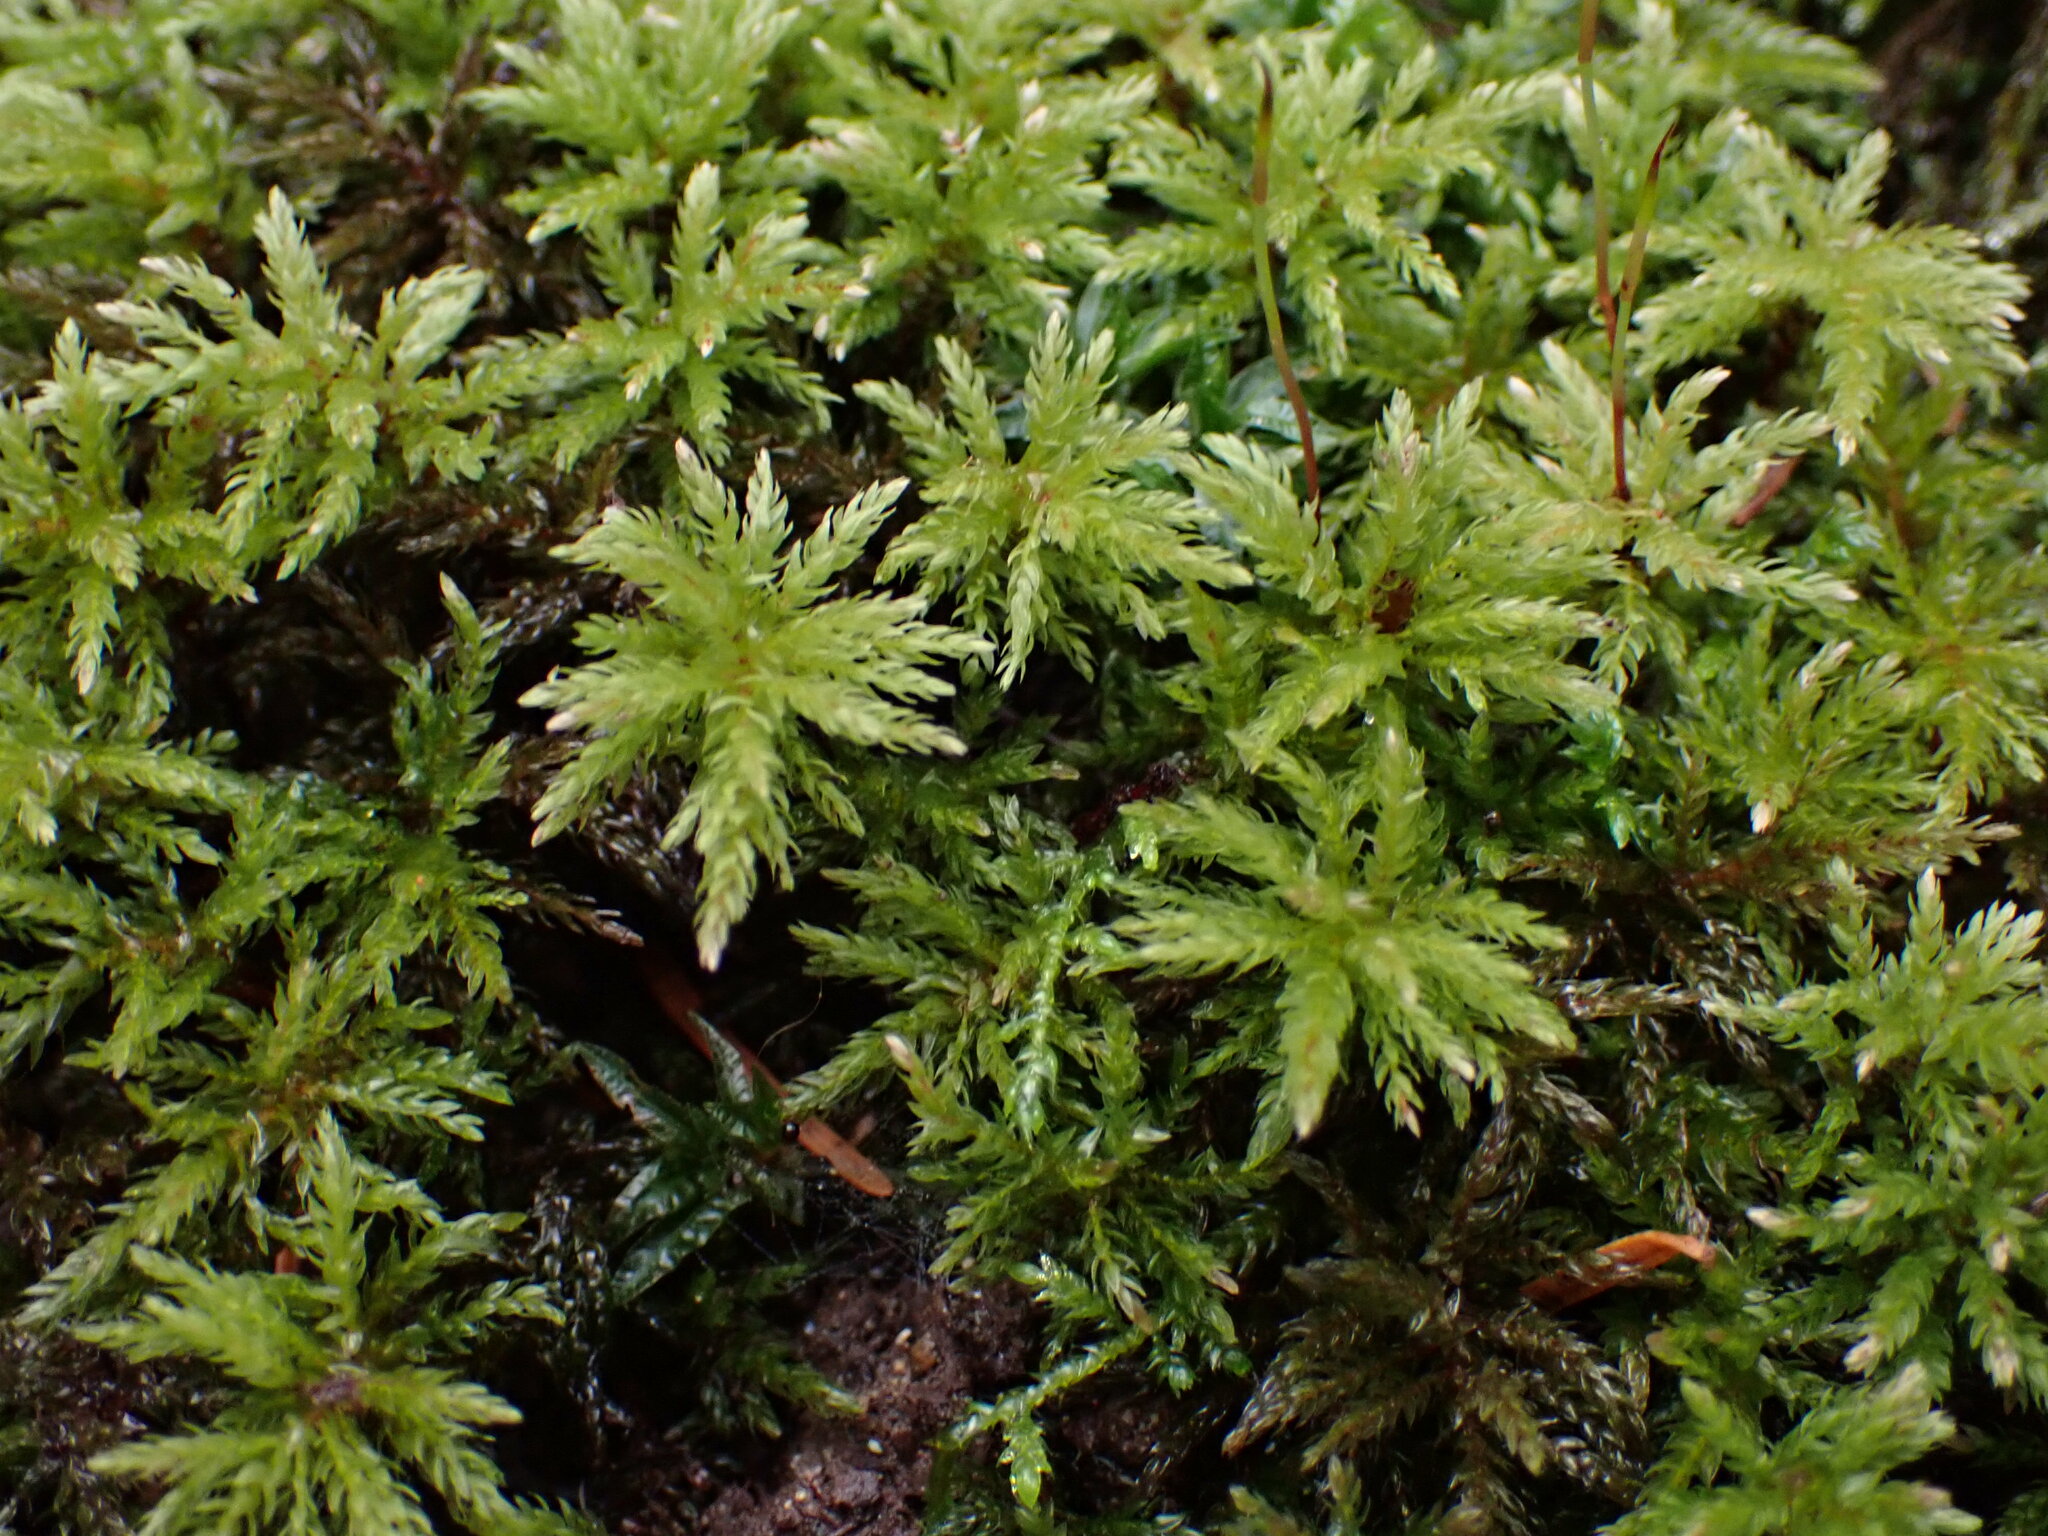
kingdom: Plantae
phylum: Bryophyta
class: Bryopsida
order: Bryales
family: Mniaceae
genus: Leucolepis
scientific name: Leucolepis acanthoneura
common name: Leucolepis umbrella moss
